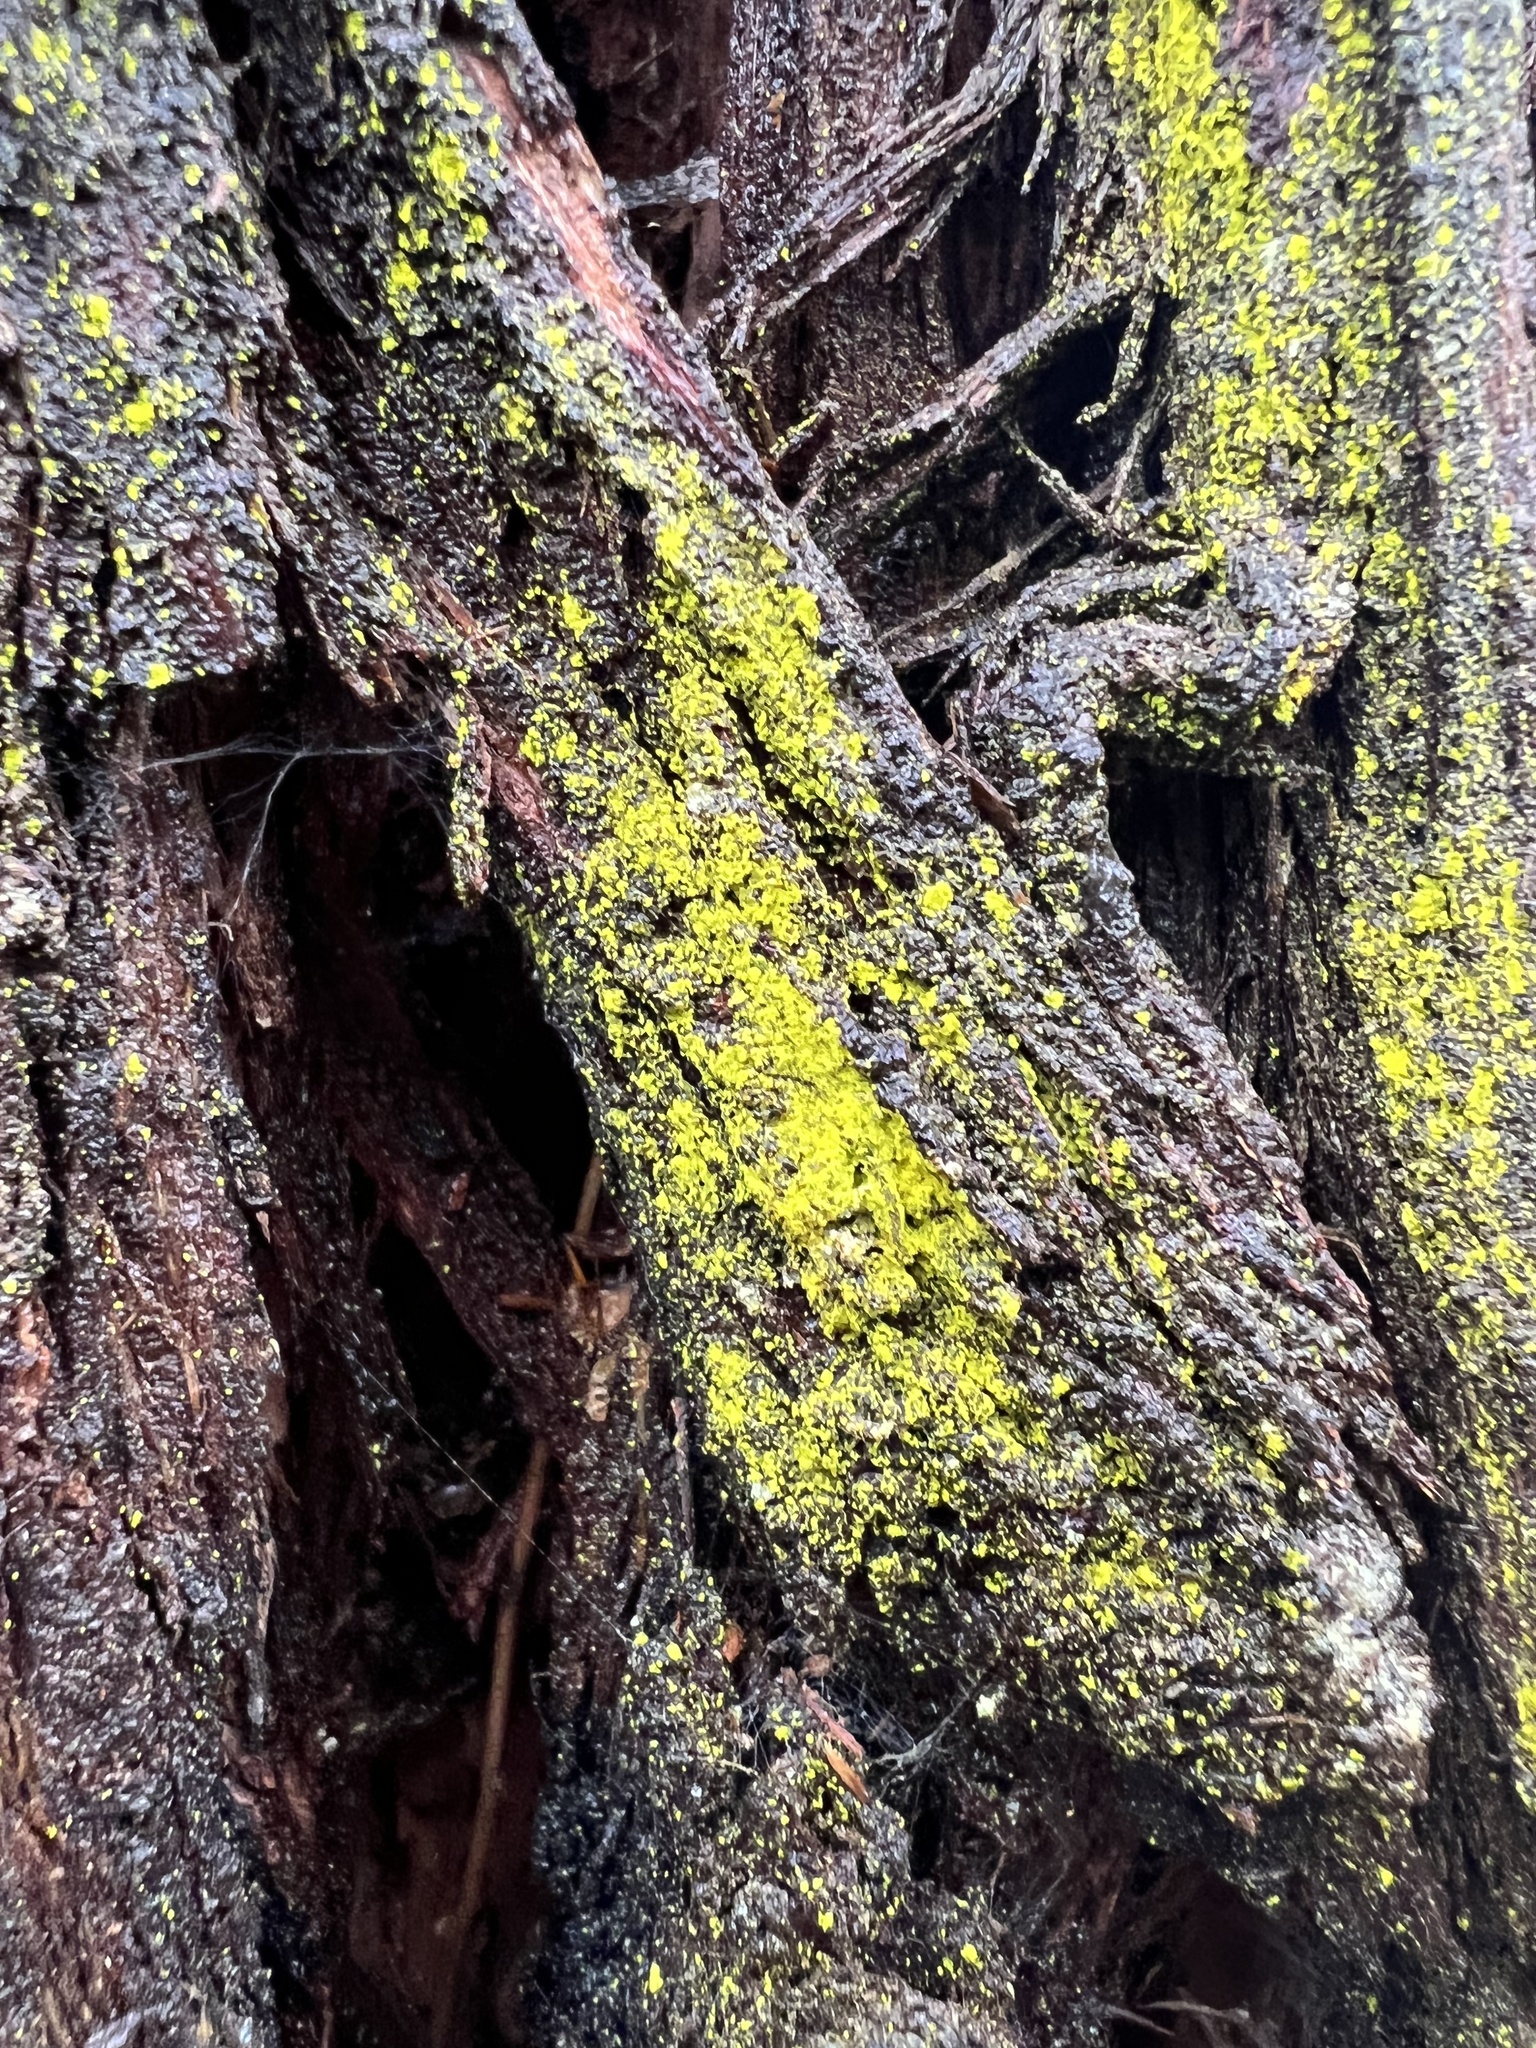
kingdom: Fungi
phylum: Ascomycota
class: Arthoniomycetes
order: Arthoniales
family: Chrysotrichaceae
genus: Chrysothrix
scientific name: Chrysothrix candelaris
